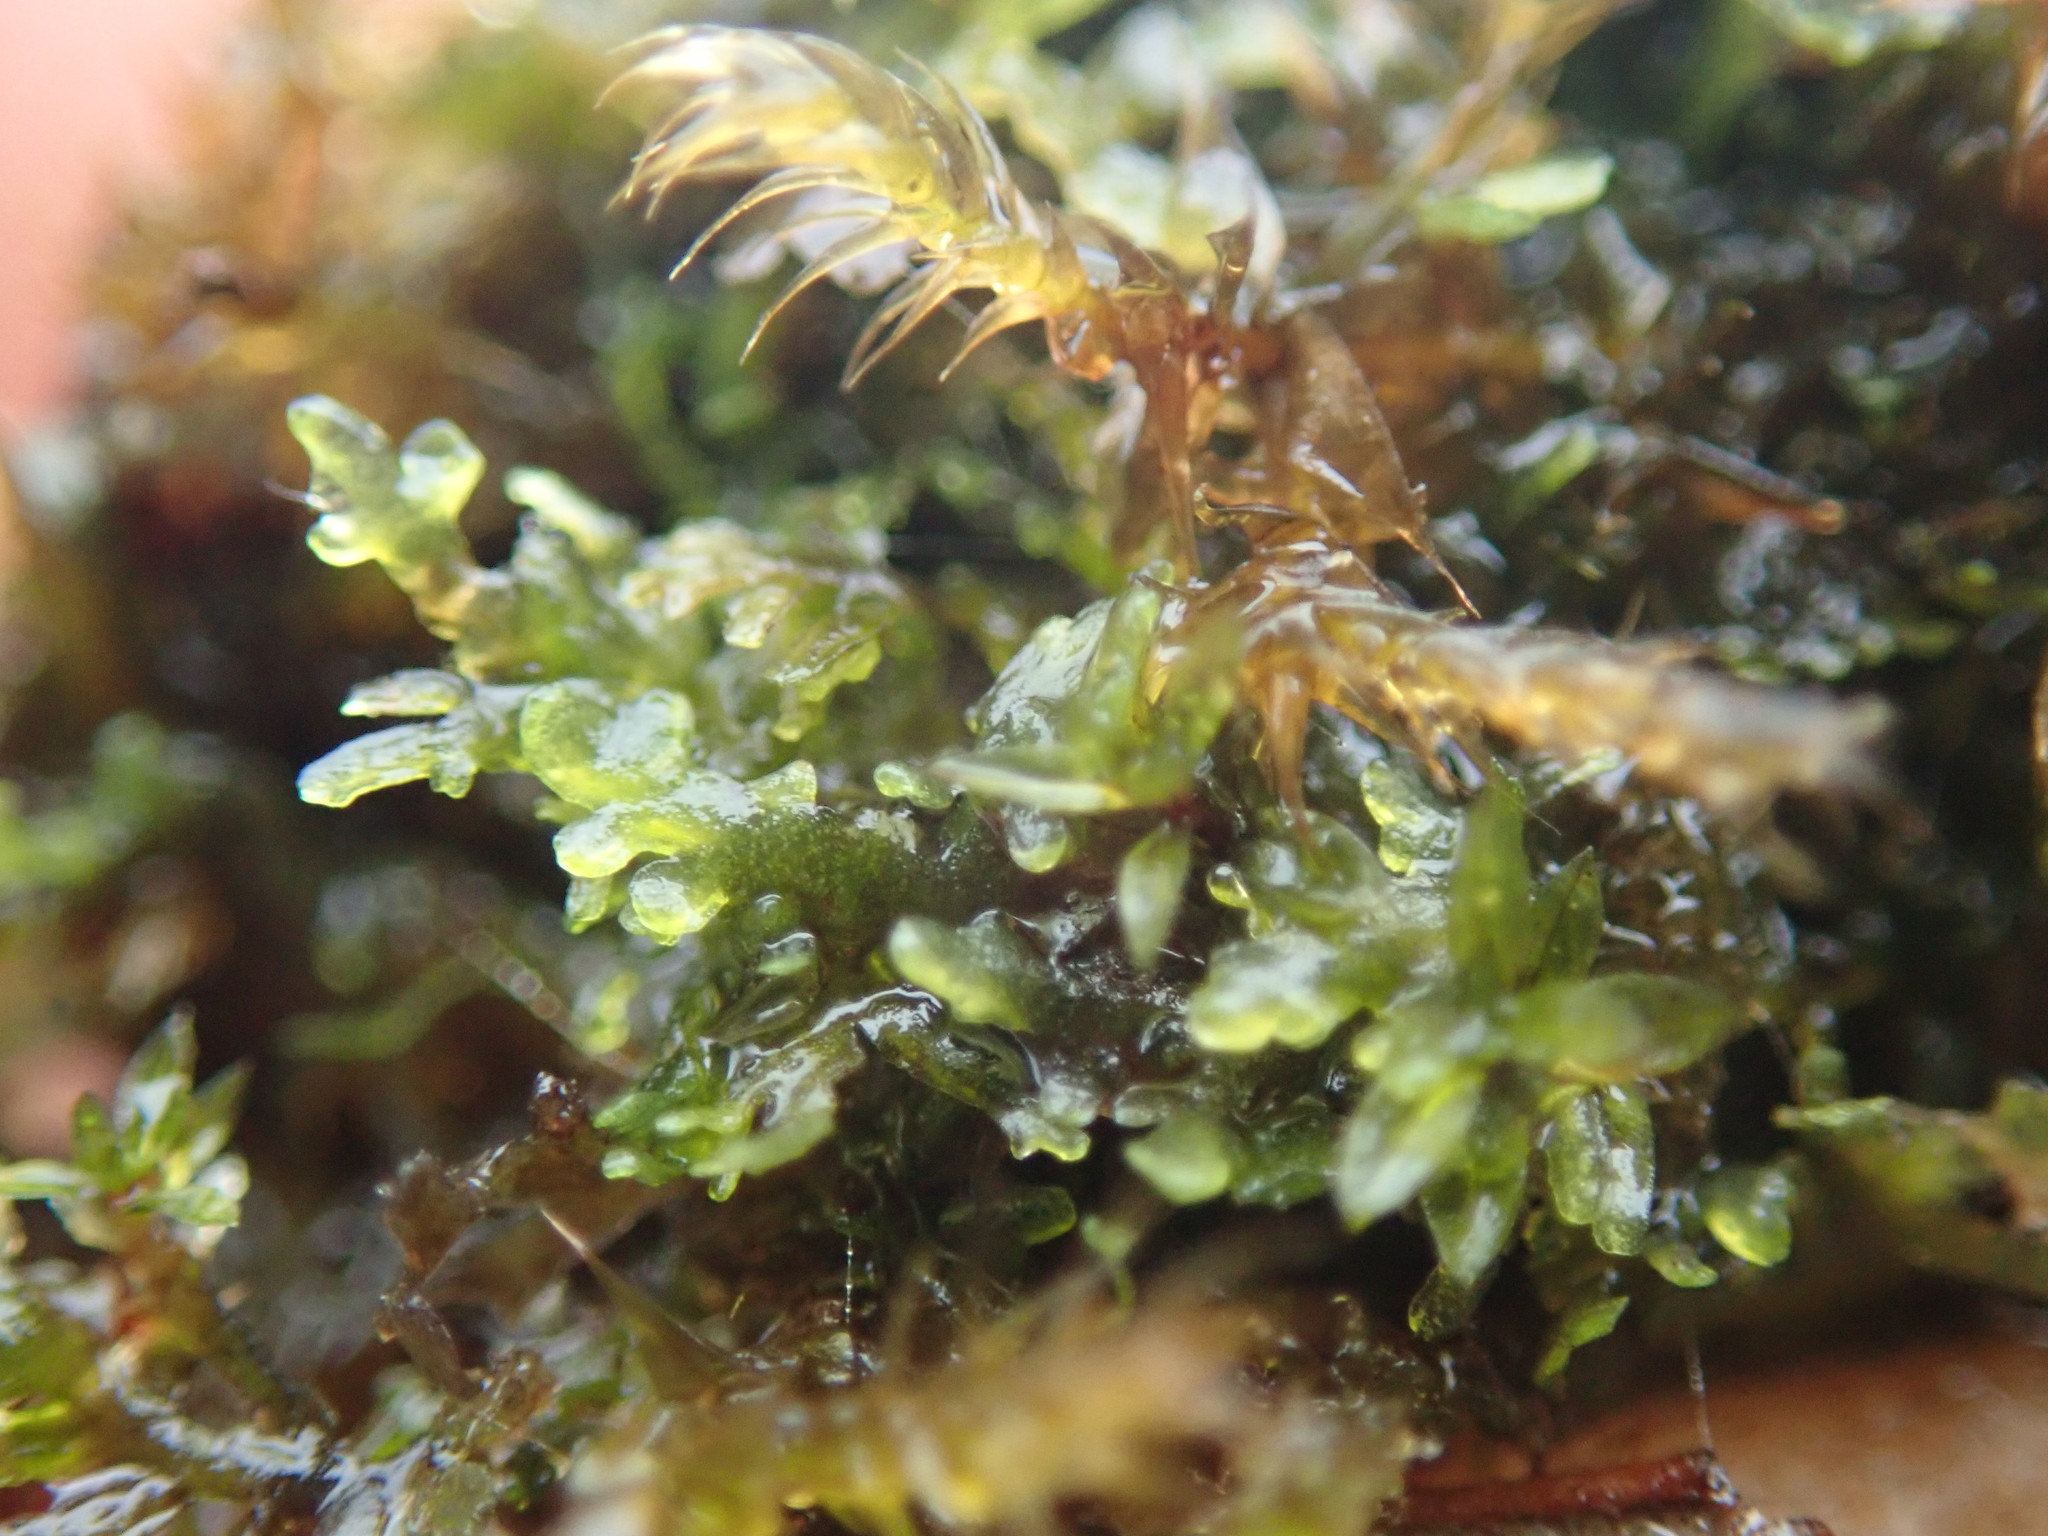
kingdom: Plantae
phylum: Marchantiophyta
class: Jungermanniopsida
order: Metzgeriales
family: Aneuraceae
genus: Riccardia
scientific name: Riccardia chamedryfolia
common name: Jagged germanderwort
